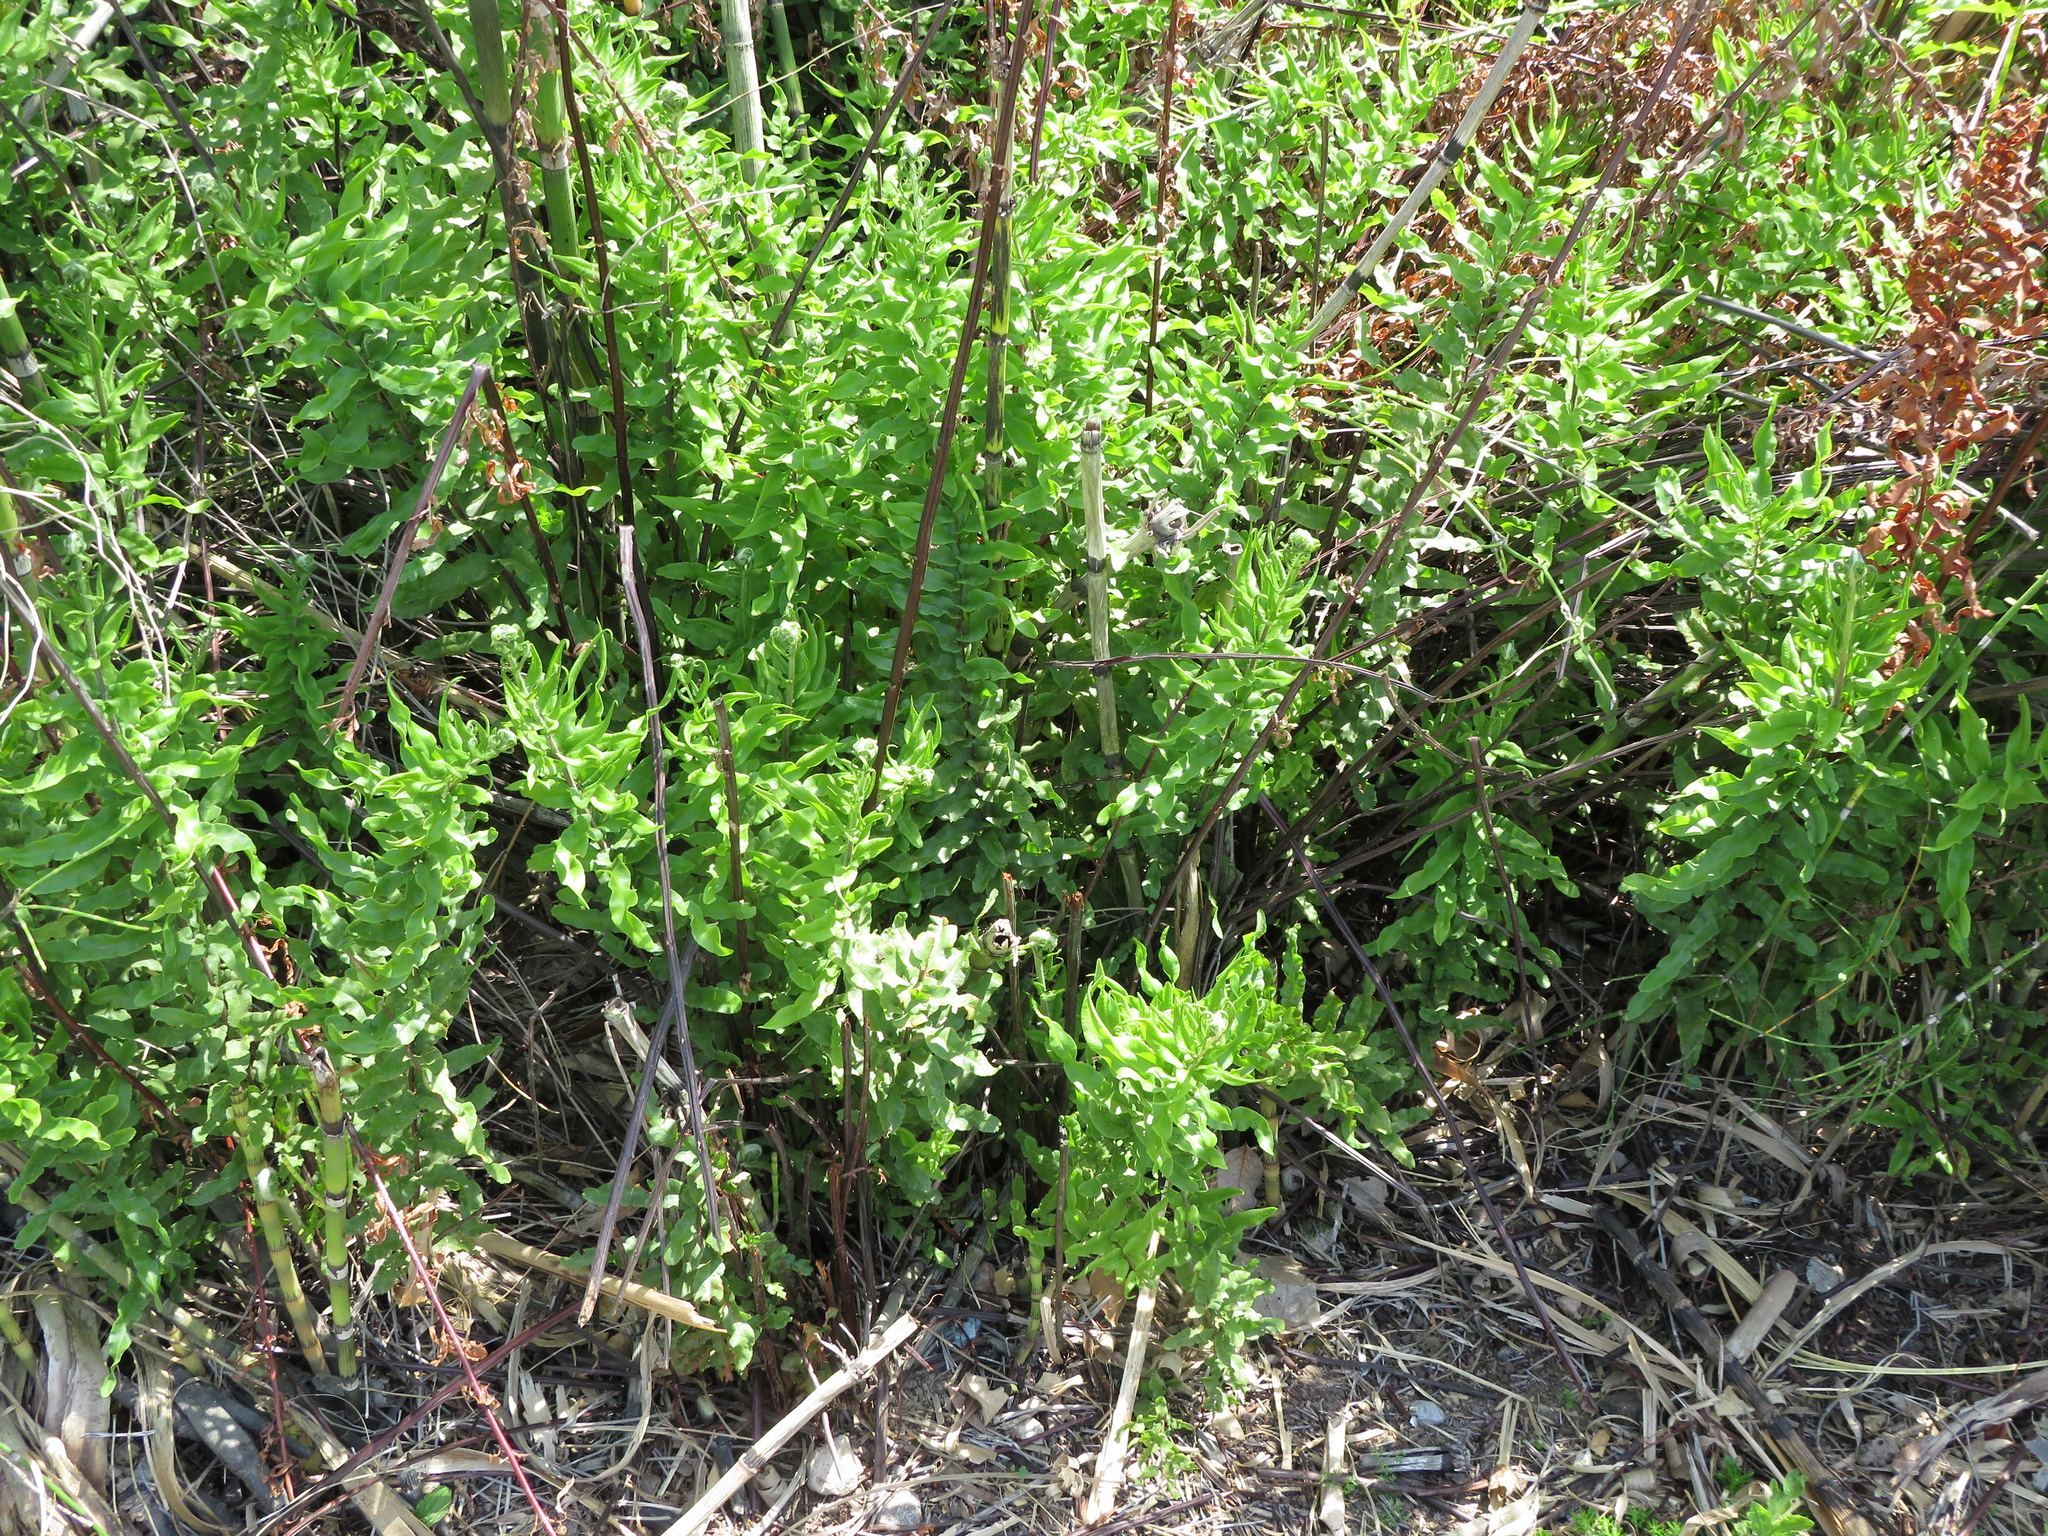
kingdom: Plantae
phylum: Tracheophyta
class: Polypodiopsida
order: Polypodiales
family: Pteridaceae
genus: Pityrogramma
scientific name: Pityrogramma trifoliata
